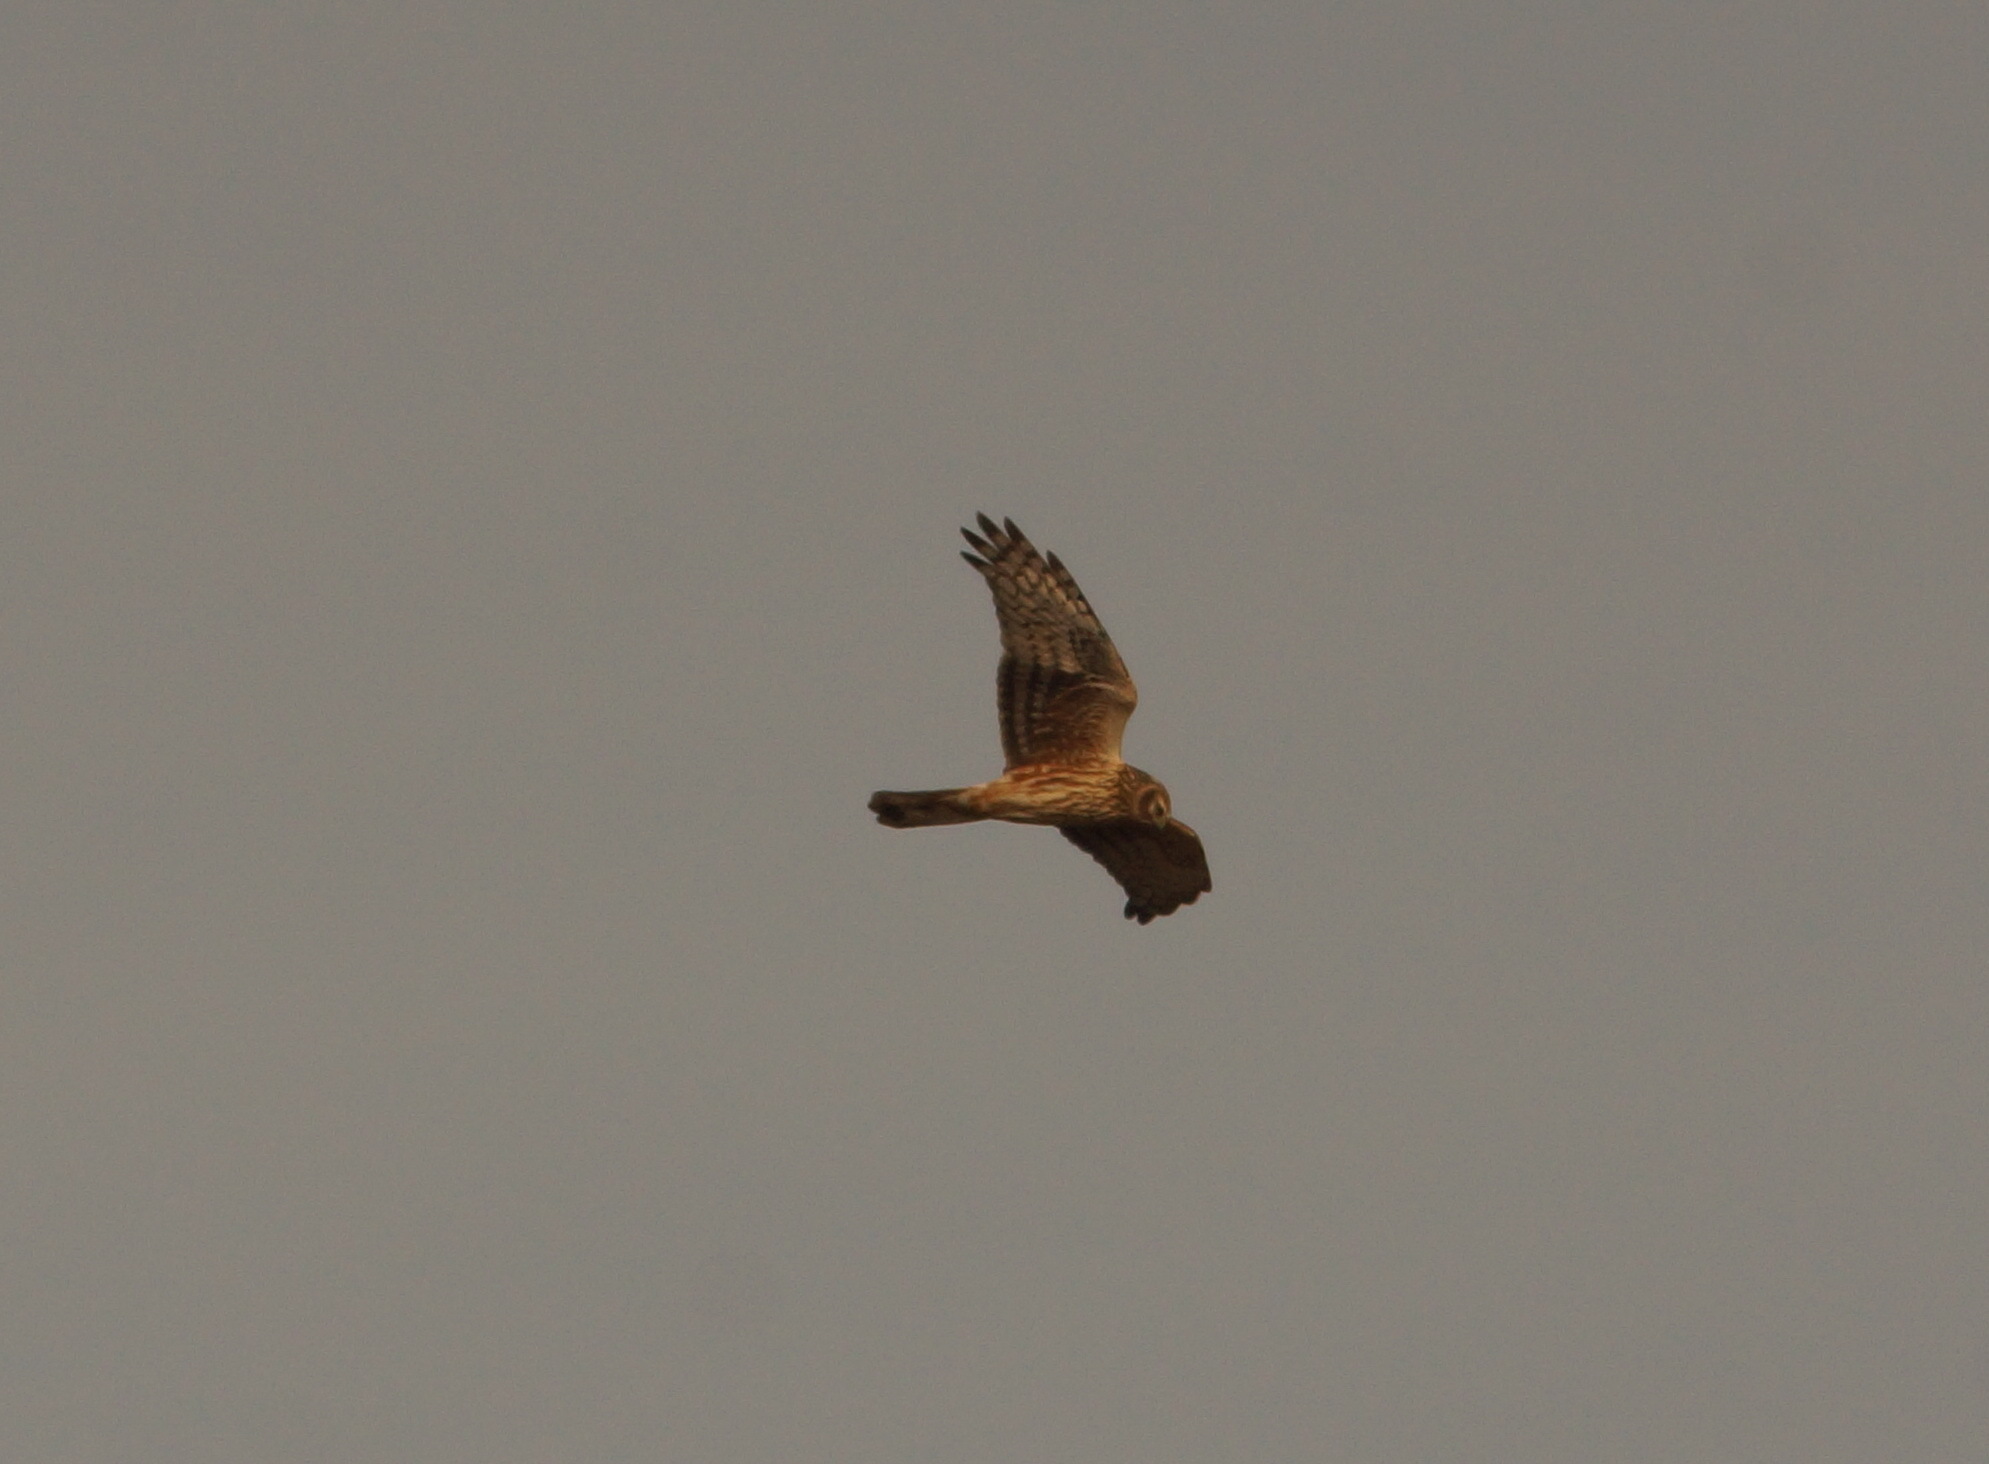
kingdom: Animalia
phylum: Chordata
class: Aves
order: Accipitriformes
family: Accipitridae
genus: Circus
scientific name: Circus cyaneus
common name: Hen harrier
